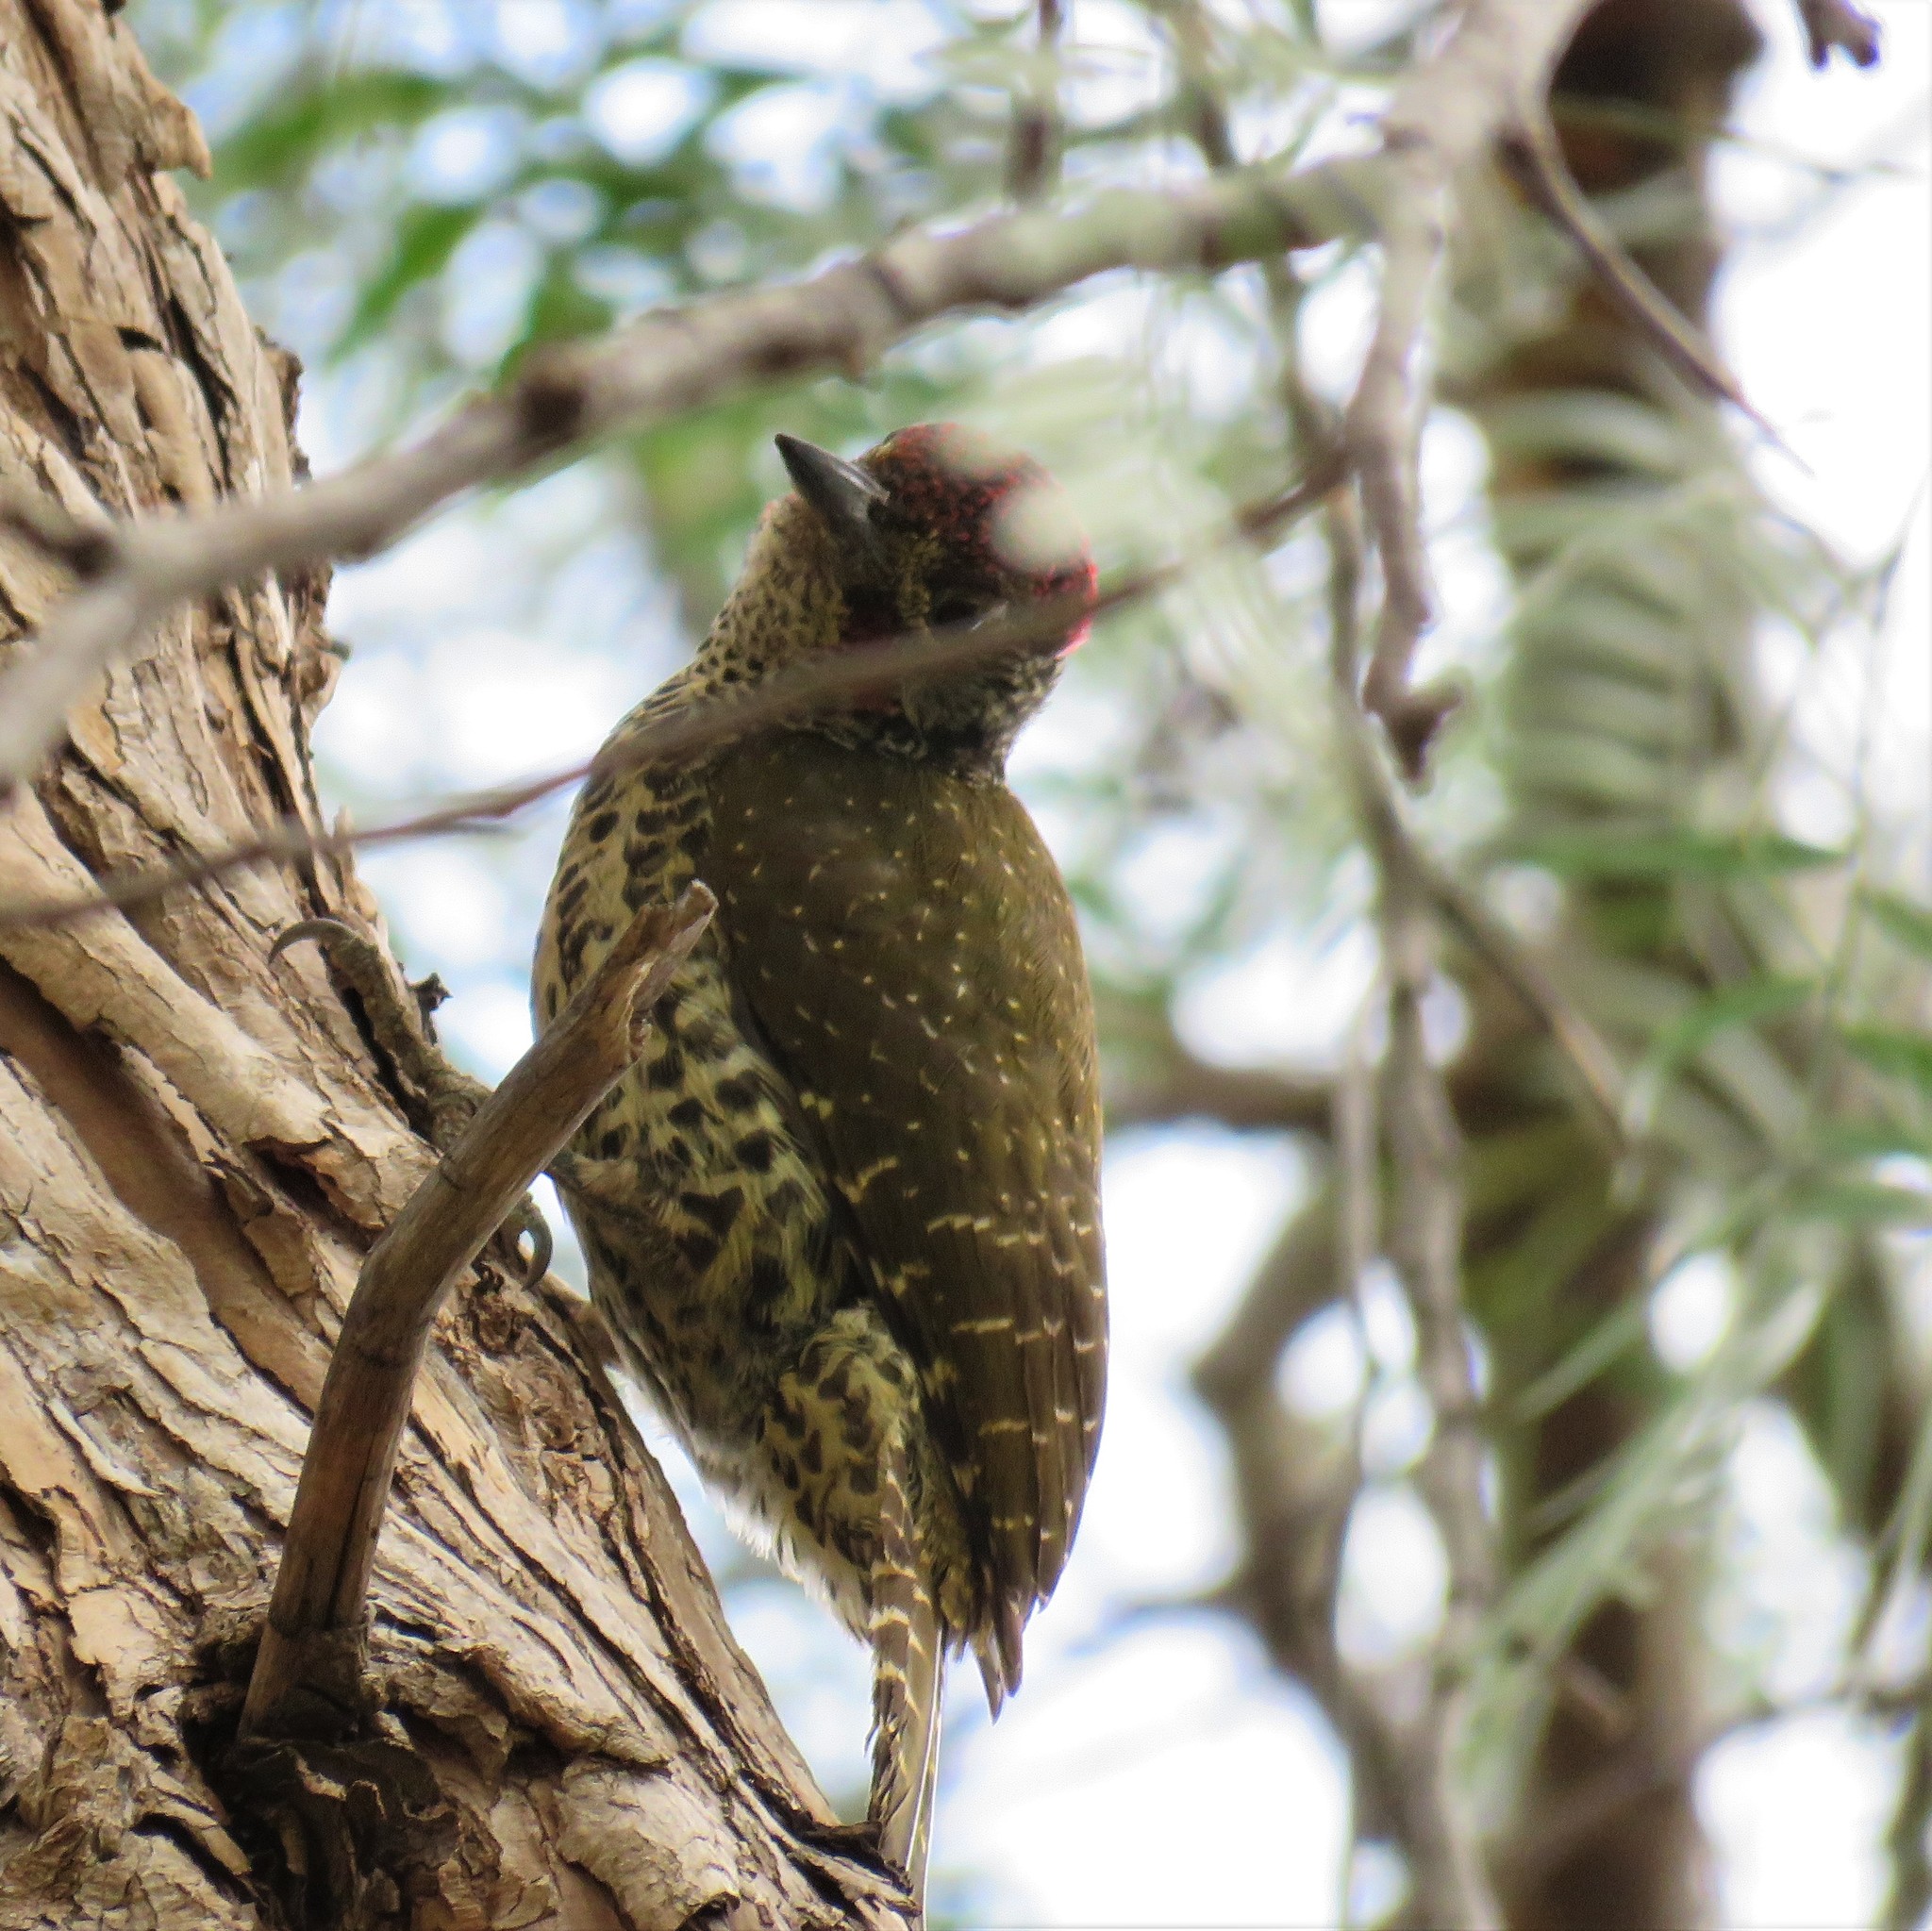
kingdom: Animalia
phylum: Chordata
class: Aves
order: Piciformes
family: Picidae
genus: Campethera
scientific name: Campethera notata
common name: Knysna woodpecker
